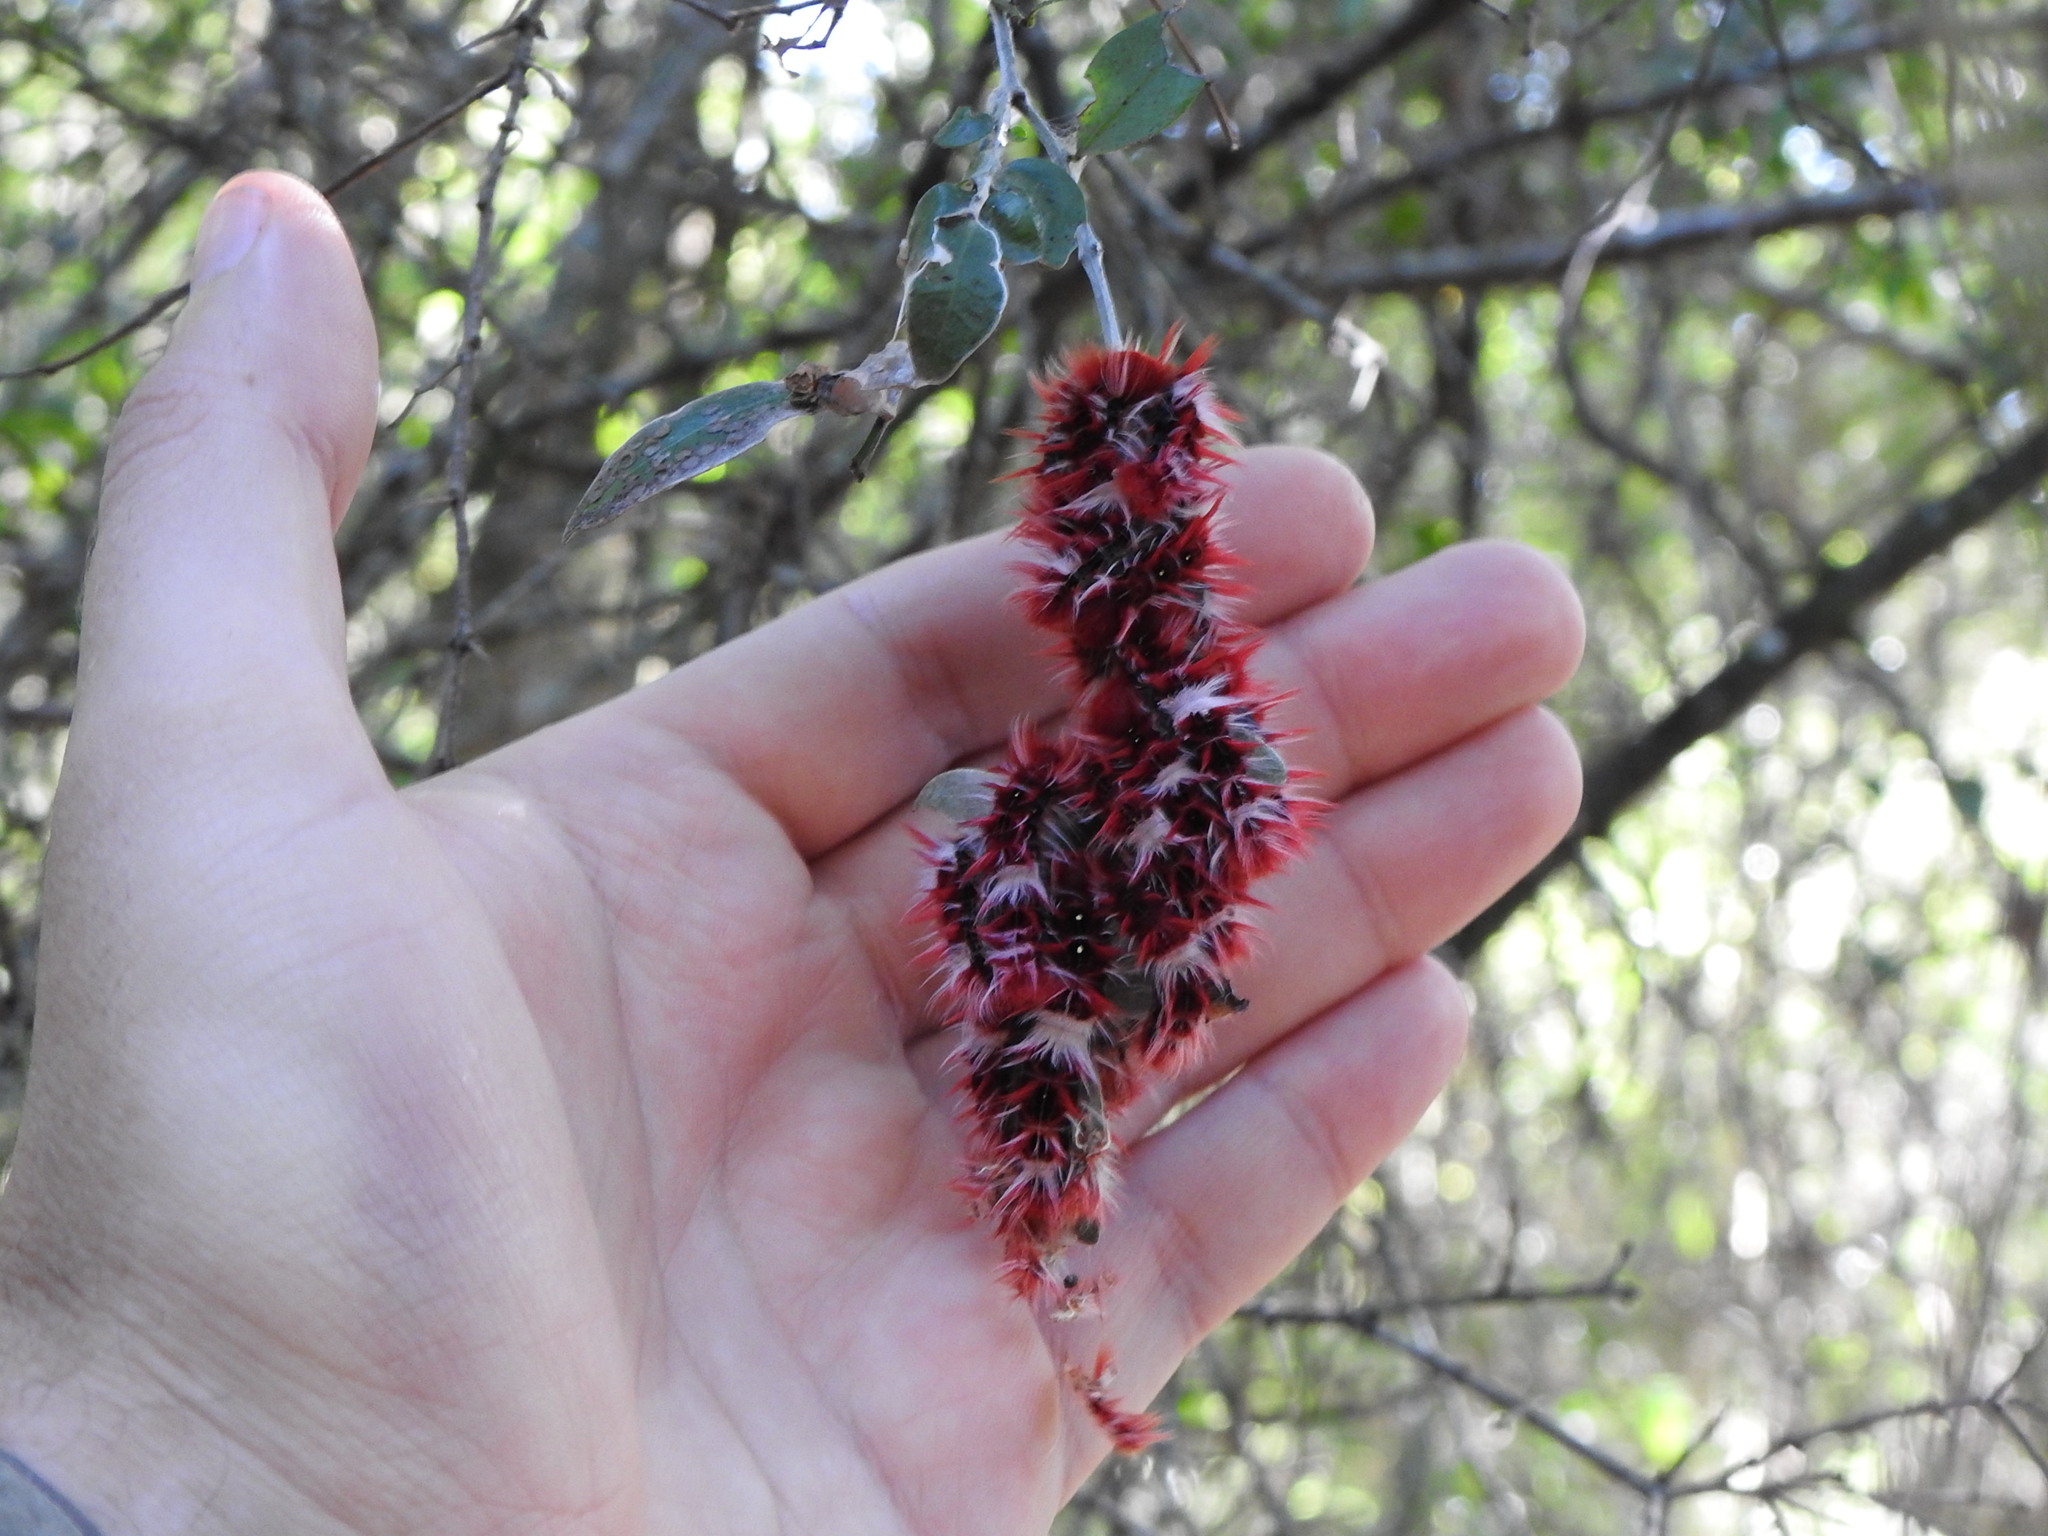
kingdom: Animalia
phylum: Arthropoda
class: Insecta
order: Lepidoptera
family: Nymphalidae
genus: Morpho
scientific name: Morpho epistrophus
